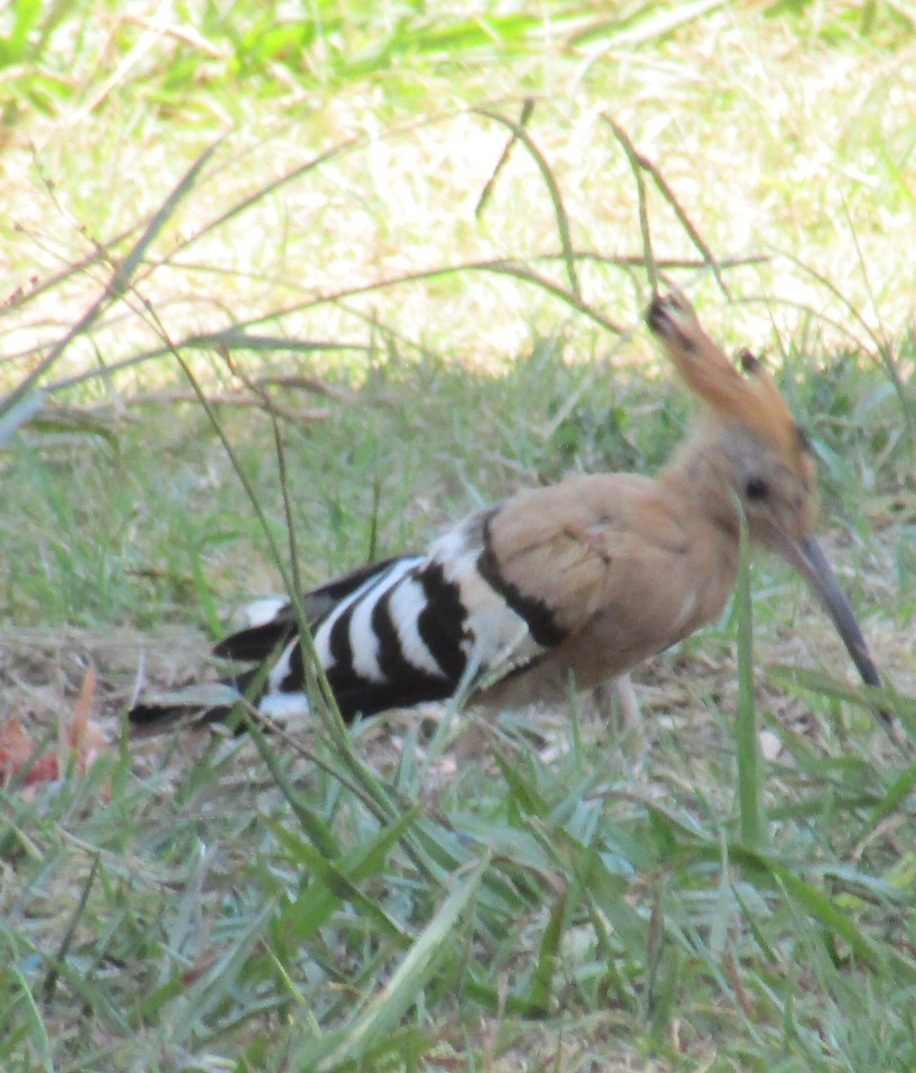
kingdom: Animalia
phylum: Chordata
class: Aves
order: Bucerotiformes
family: Upupidae
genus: Upupa
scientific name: Upupa epops
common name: Eurasian hoopoe
